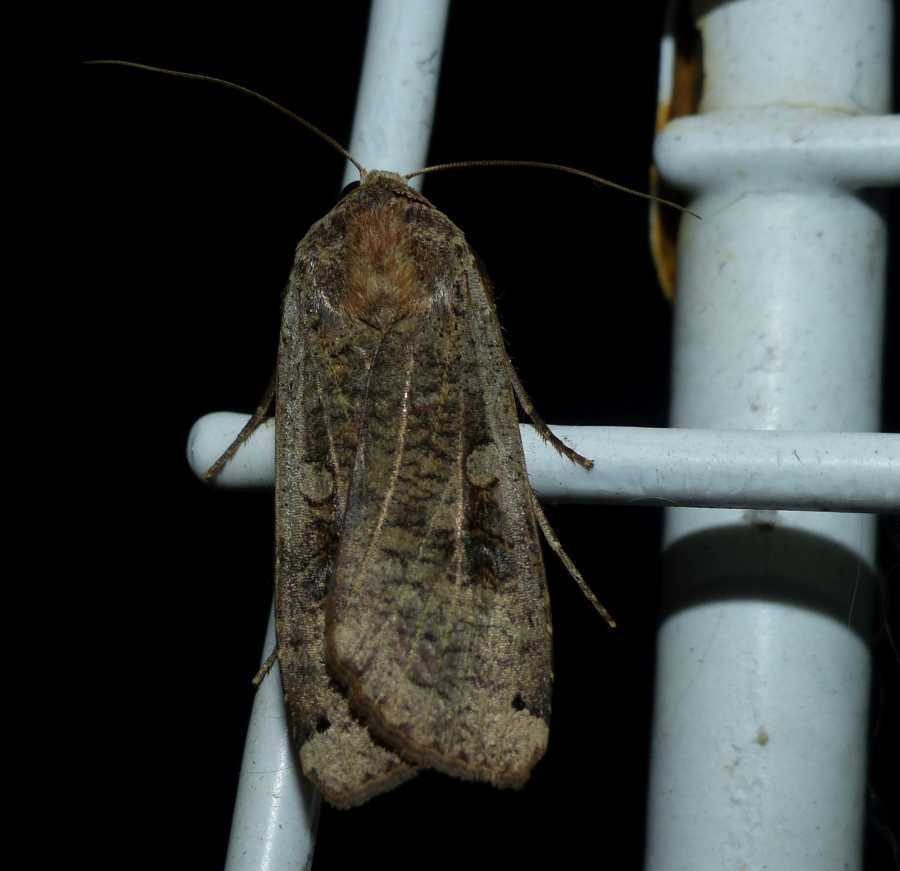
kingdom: Animalia
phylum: Arthropoda
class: Insecta
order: Lepidoptera
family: Noctuidae
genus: Noctua
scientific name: Noctua pronuba
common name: Large yellow underwing
